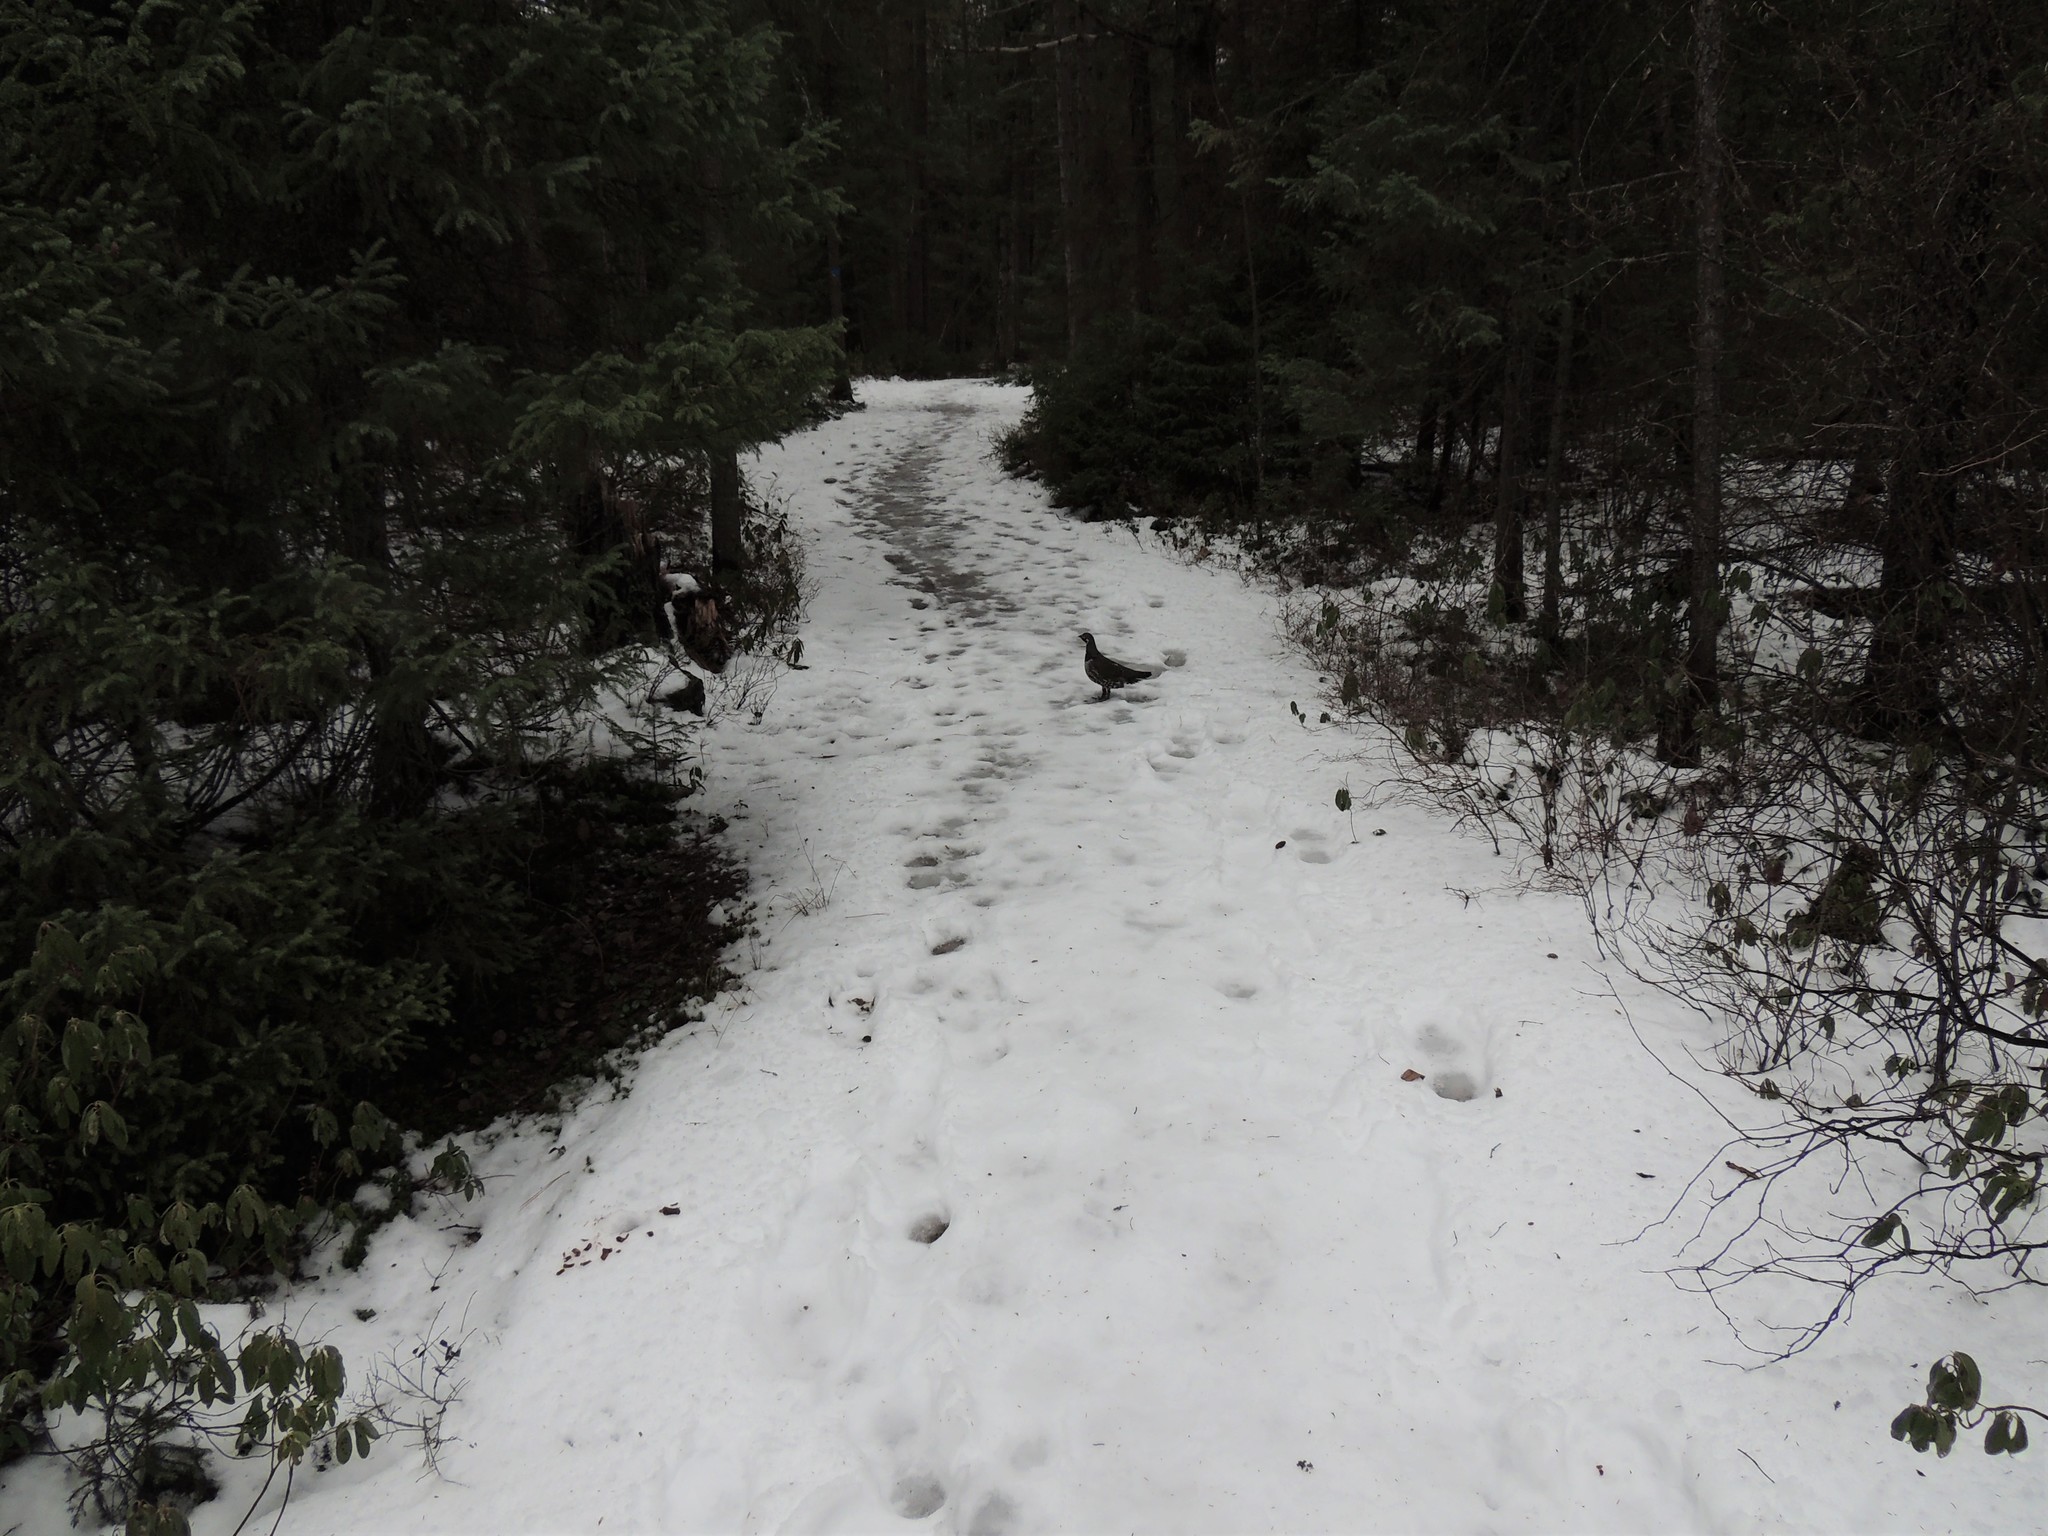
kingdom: Animalia
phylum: Chordata
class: Aves
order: Galliformes
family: Phasianidae
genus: Canachites
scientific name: Canachites canadensis
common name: Spruce grouse
